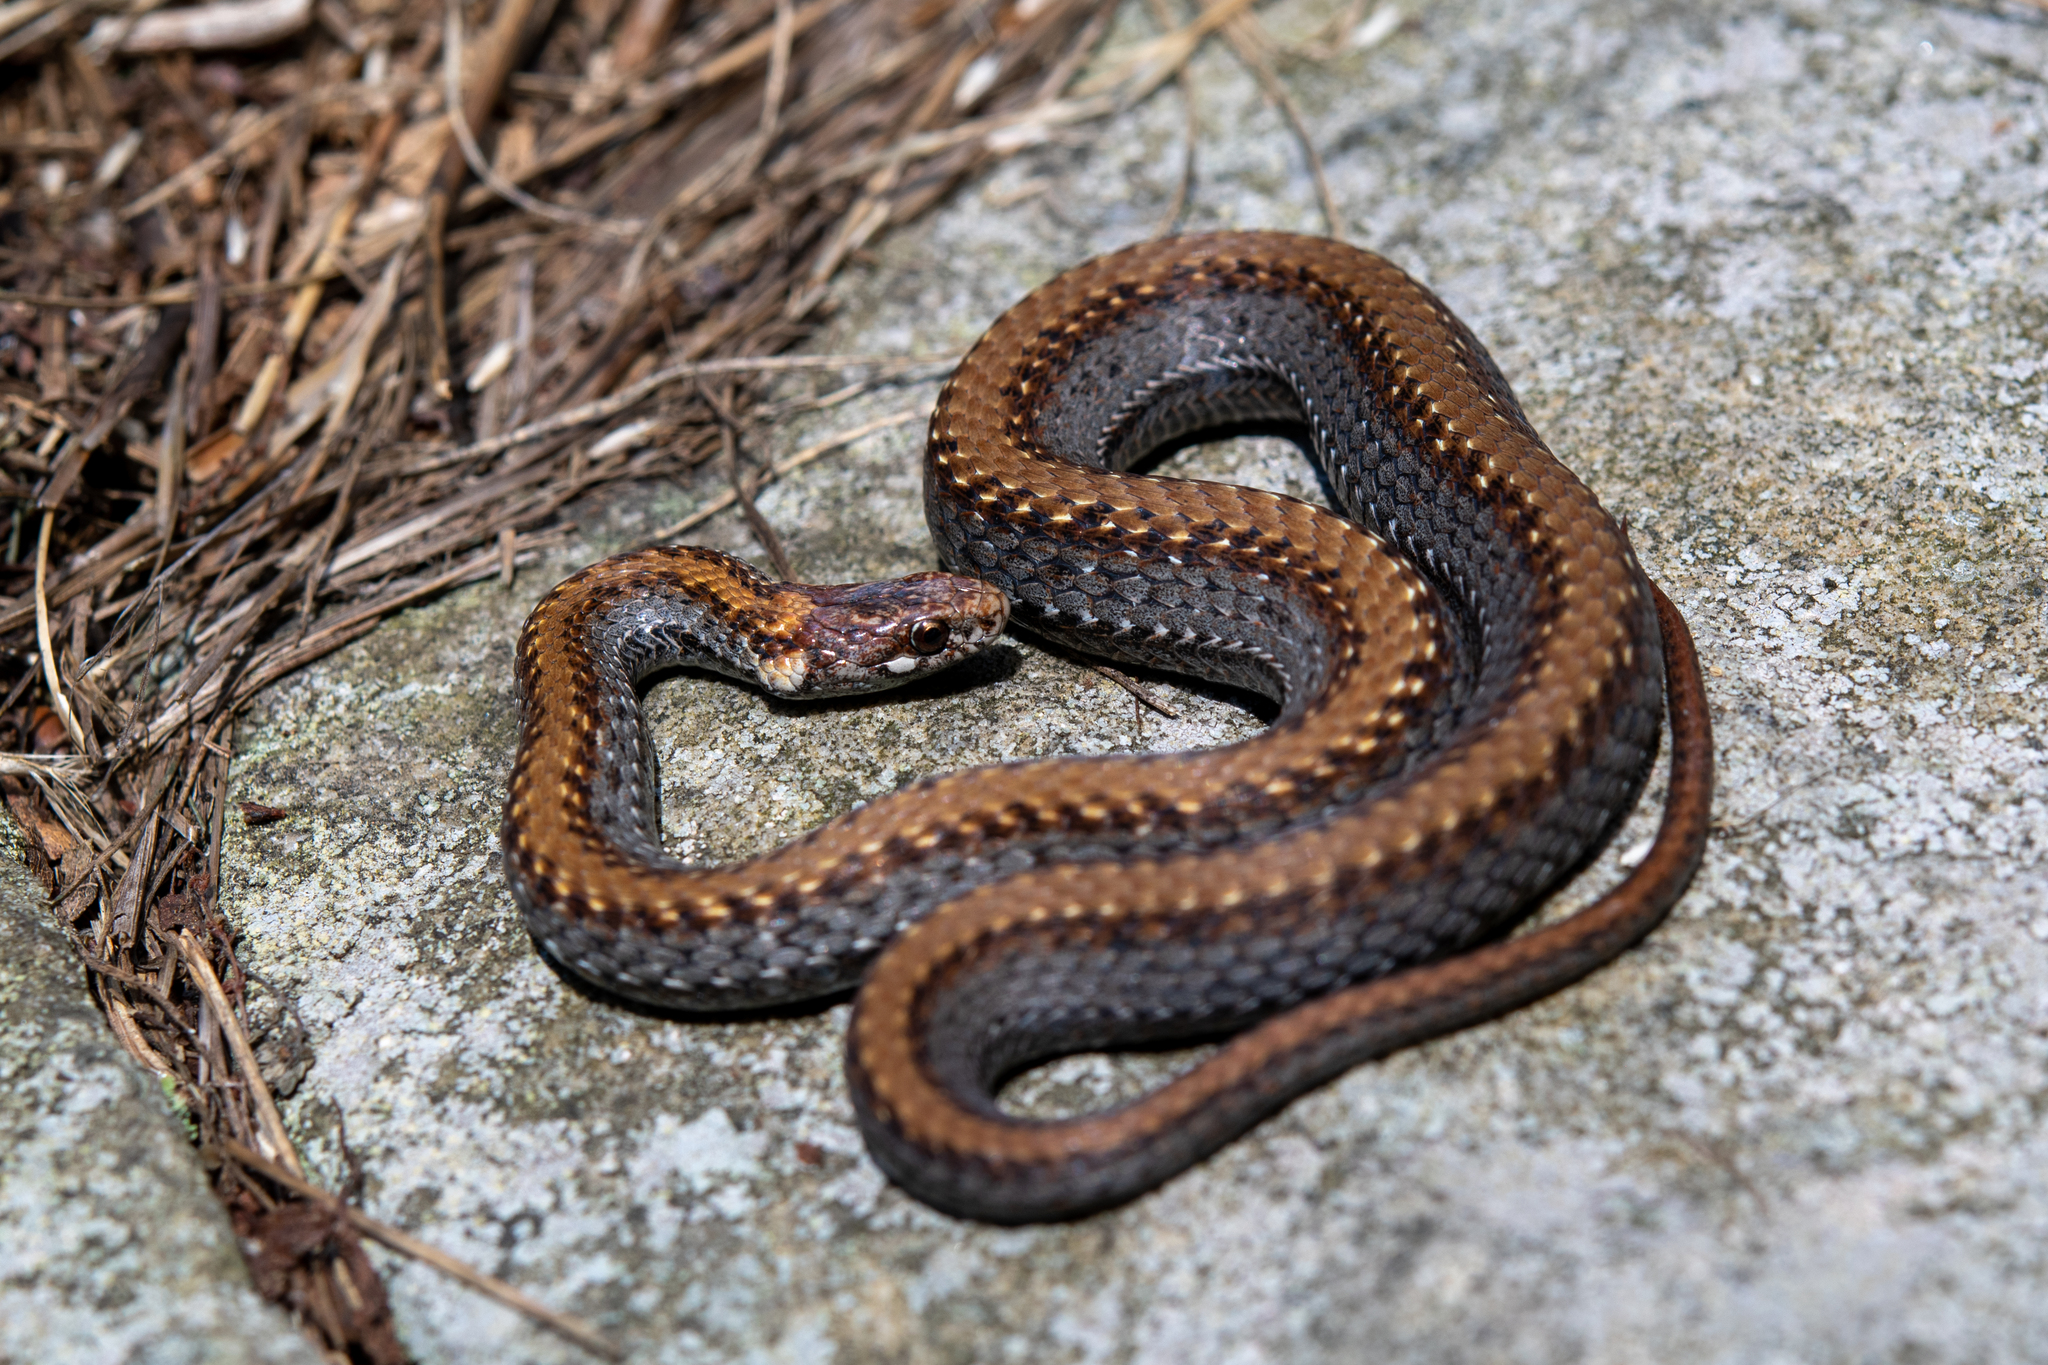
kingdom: Animalia
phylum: Chordata
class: Squamata
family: Colubridae
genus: Storeria
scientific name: Storeria occipitomaculata
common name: Redbelly snake
